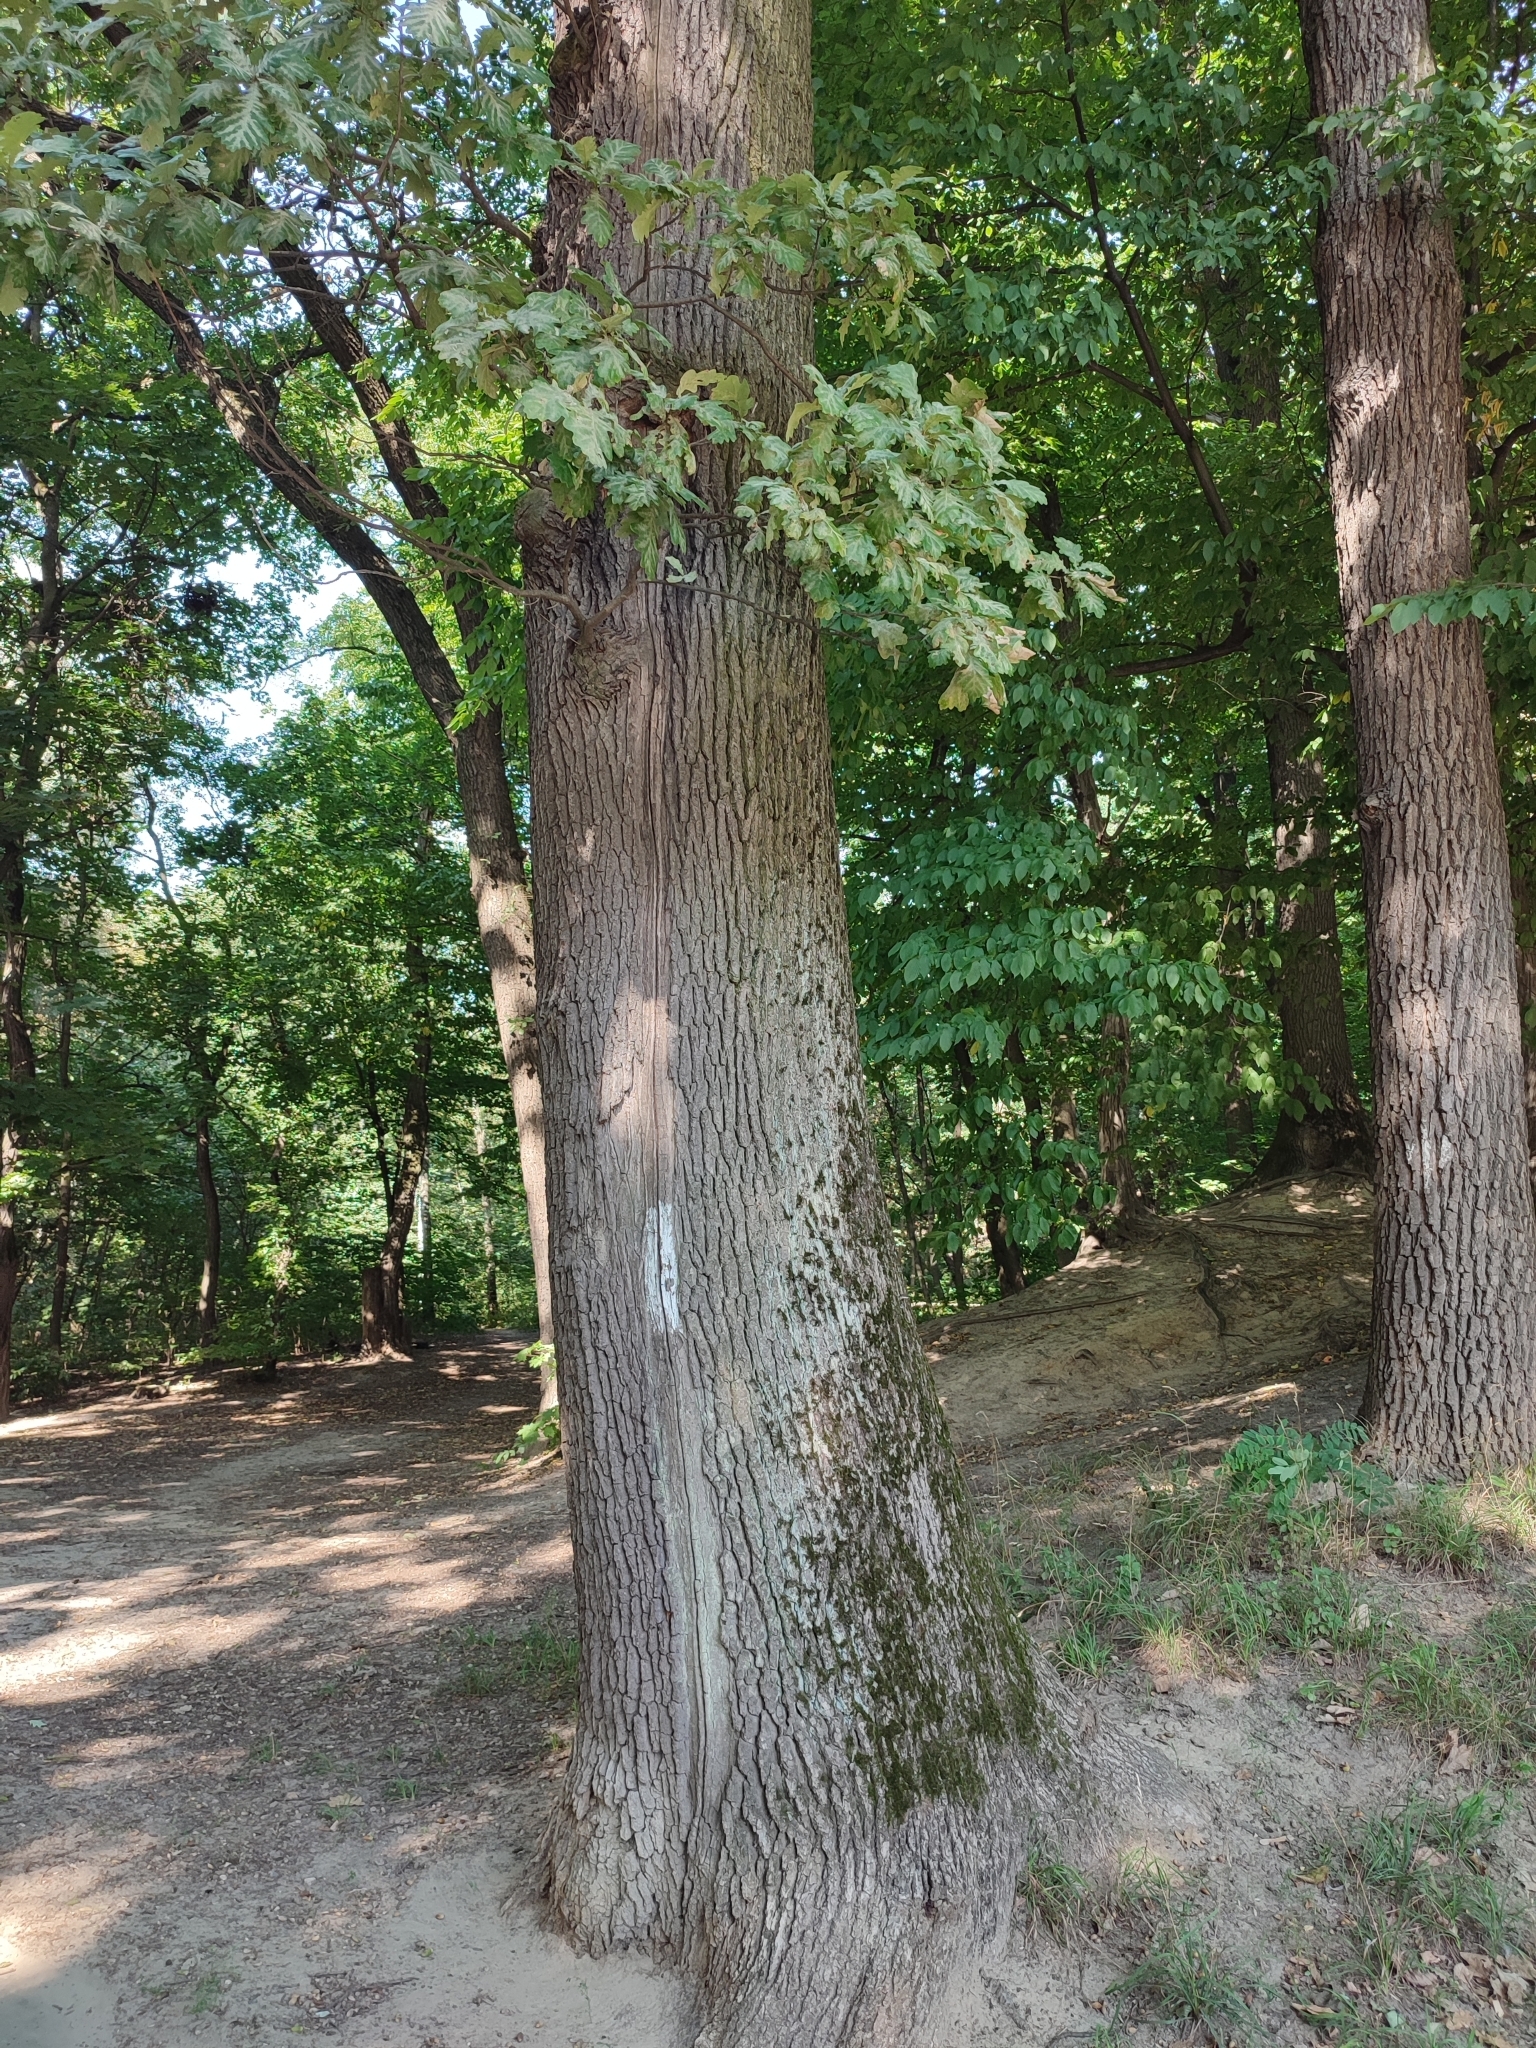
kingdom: Plantae
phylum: Tracheophyta
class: Magnoliopsida
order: Fagales
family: Fagaceae
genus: Quercus
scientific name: Quercus robur
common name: Pedunculate oak
